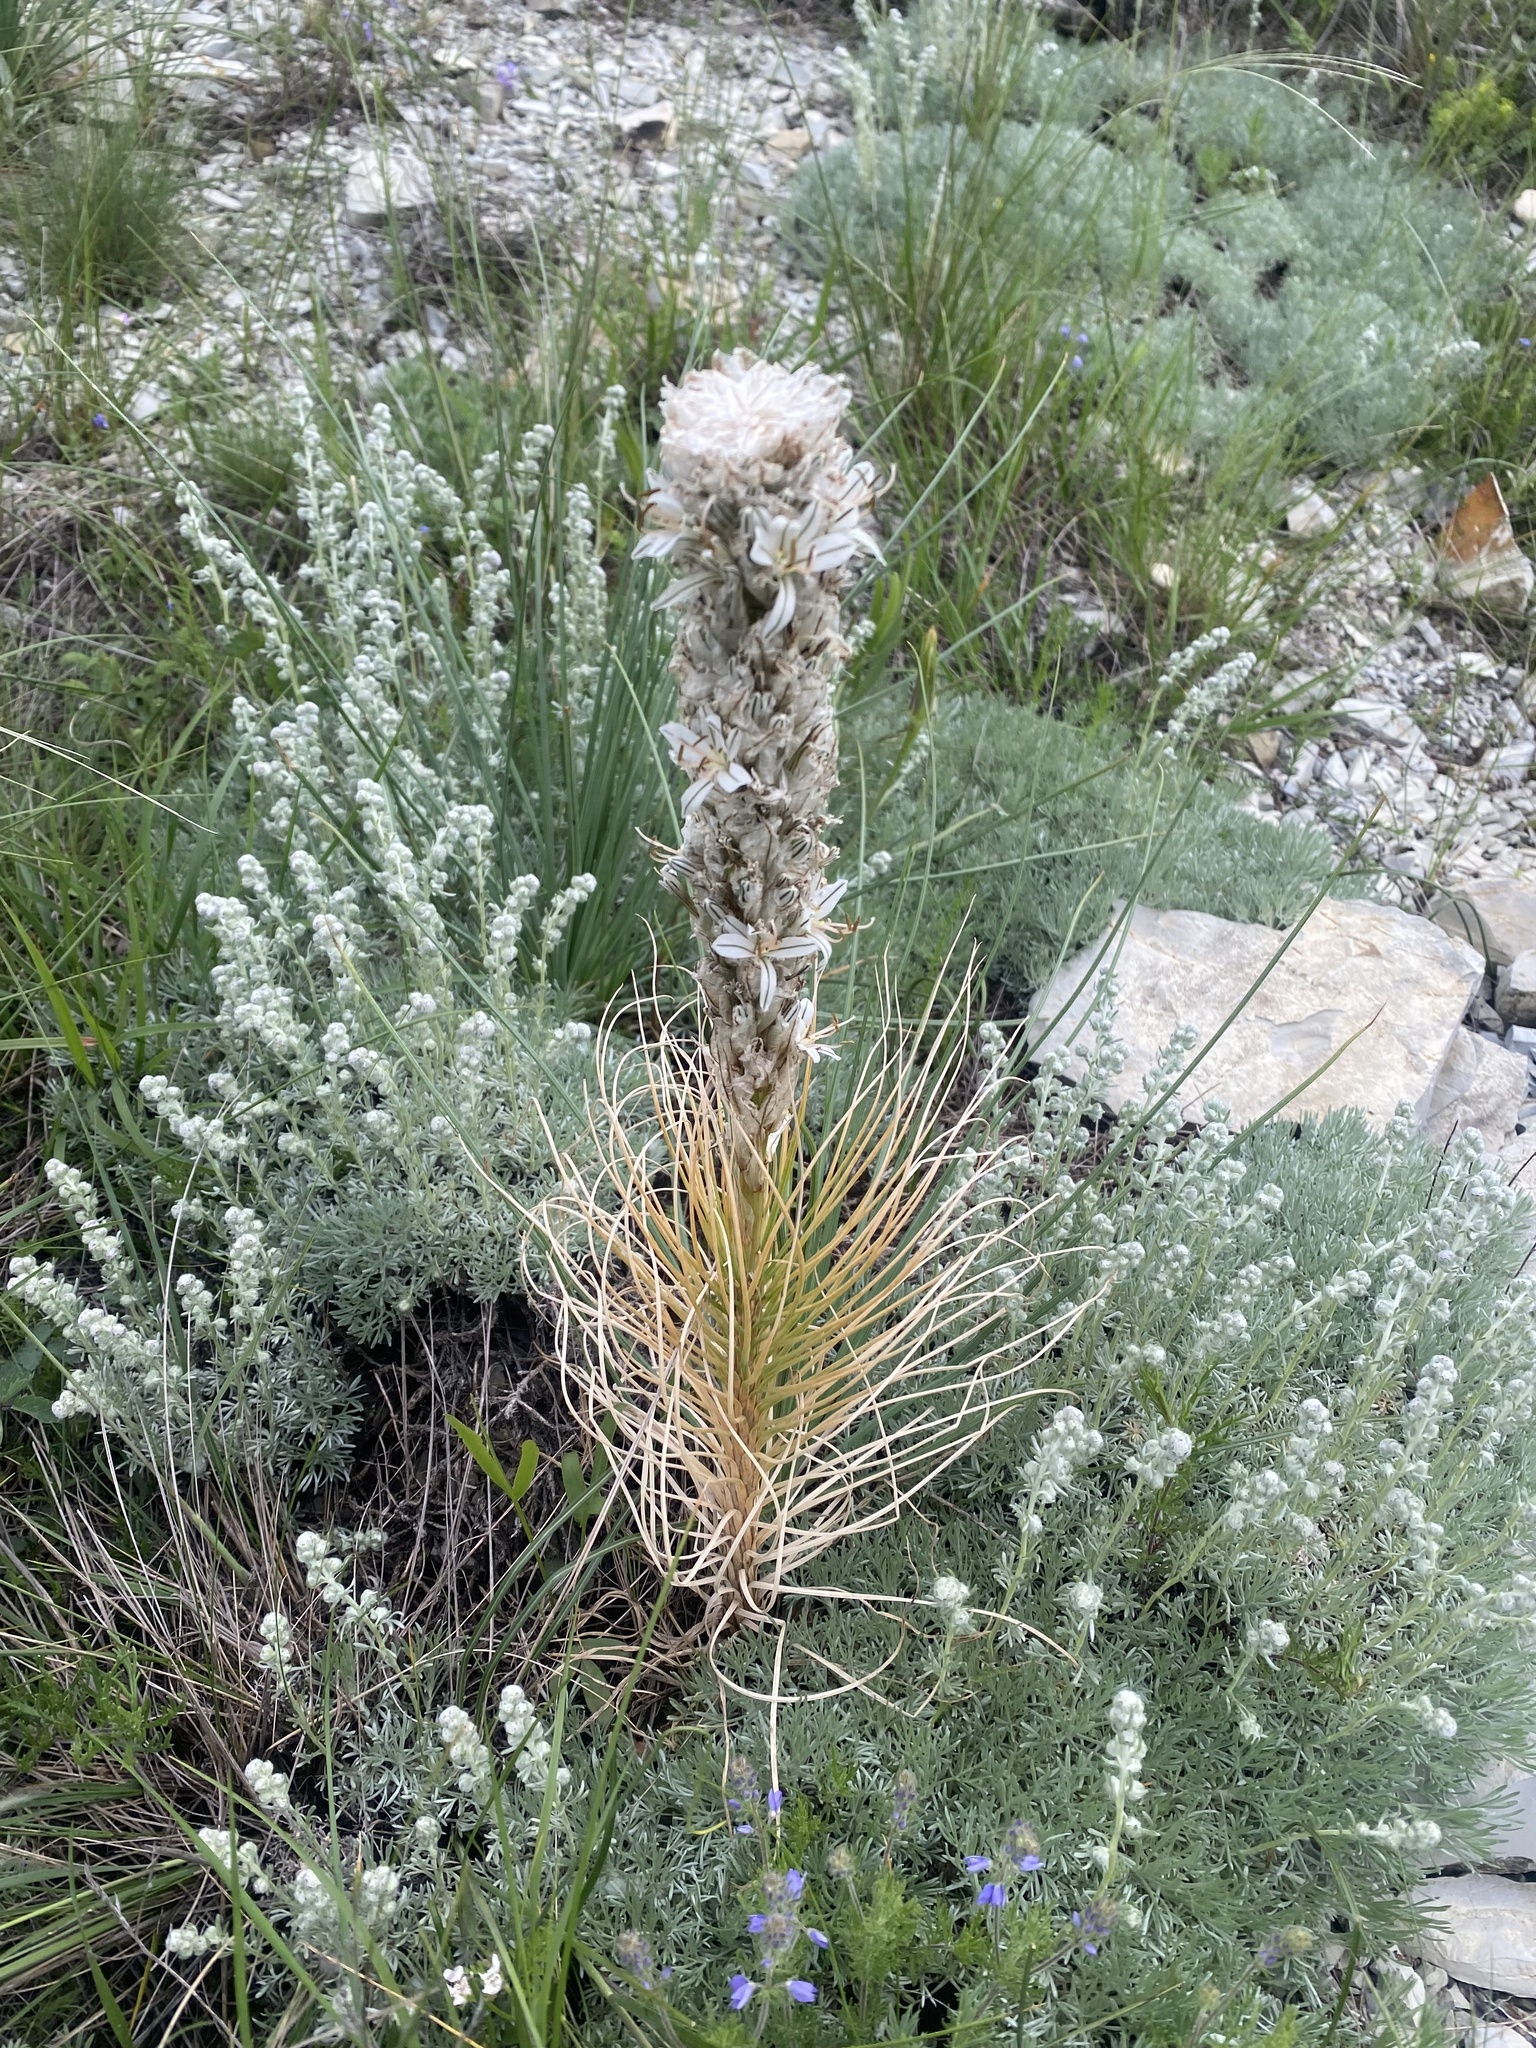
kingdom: Plantae
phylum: Tracheophyta
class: Liliopsida
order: Asparagales
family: Asphodelaceae
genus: Asphodeline
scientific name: Asphodeline taurica
